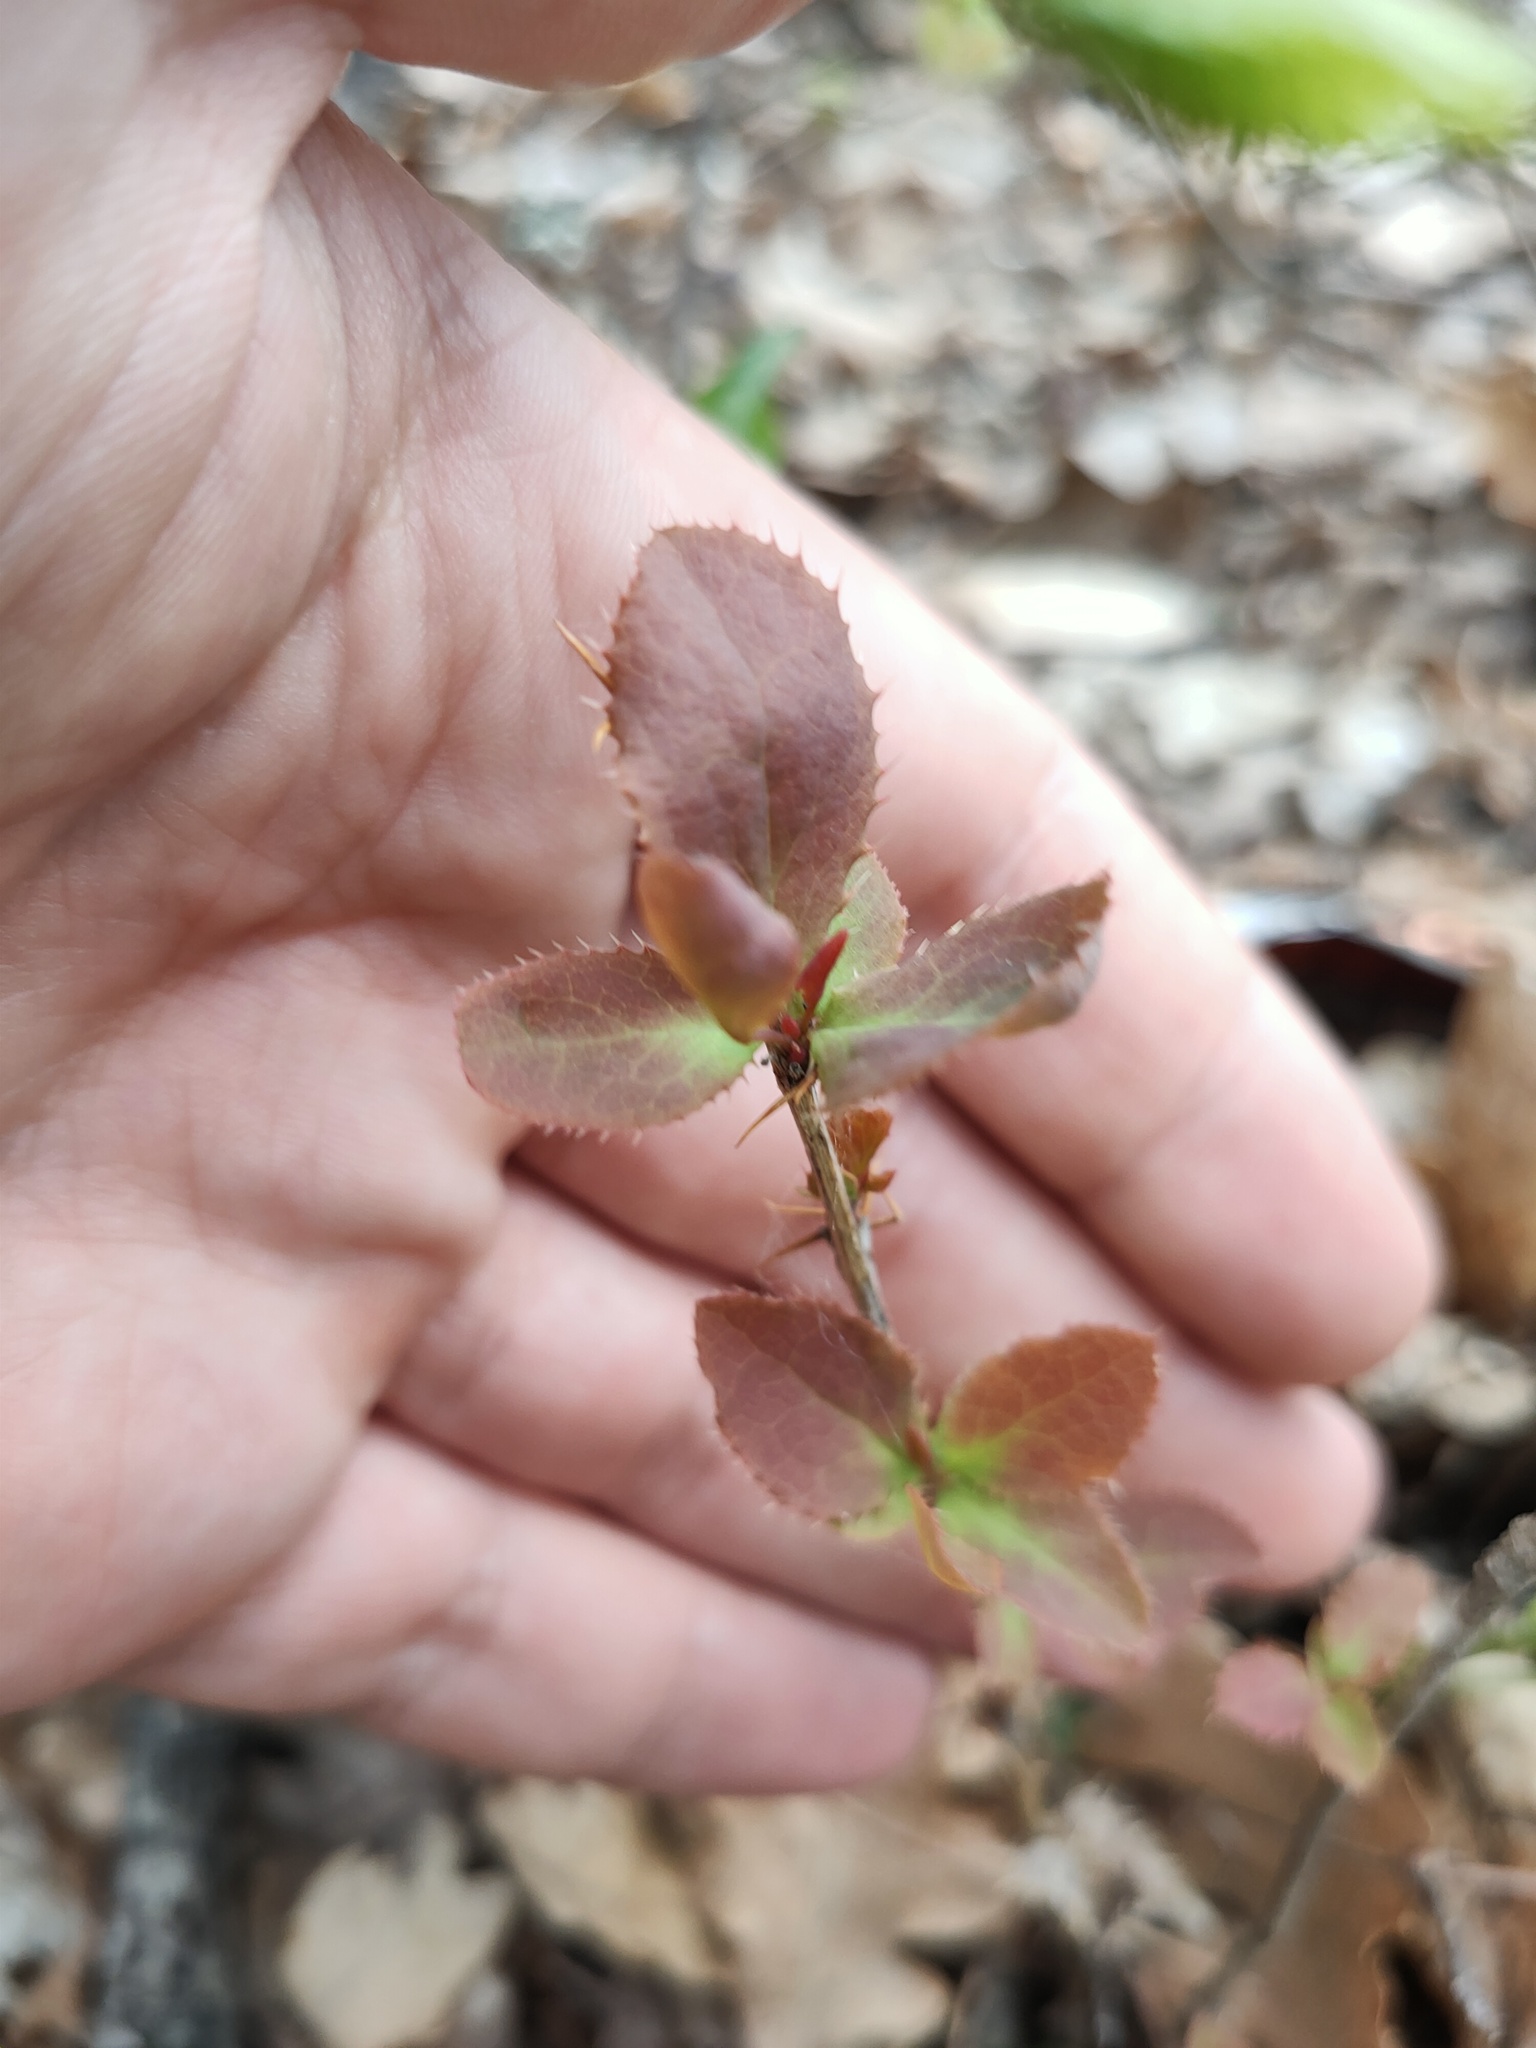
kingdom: Plantae
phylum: Tracheophyta
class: Magnoliopsida
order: Ranunculales
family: Berberidaceae
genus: Berberis
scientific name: Berberis vulgaris
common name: Barberry
